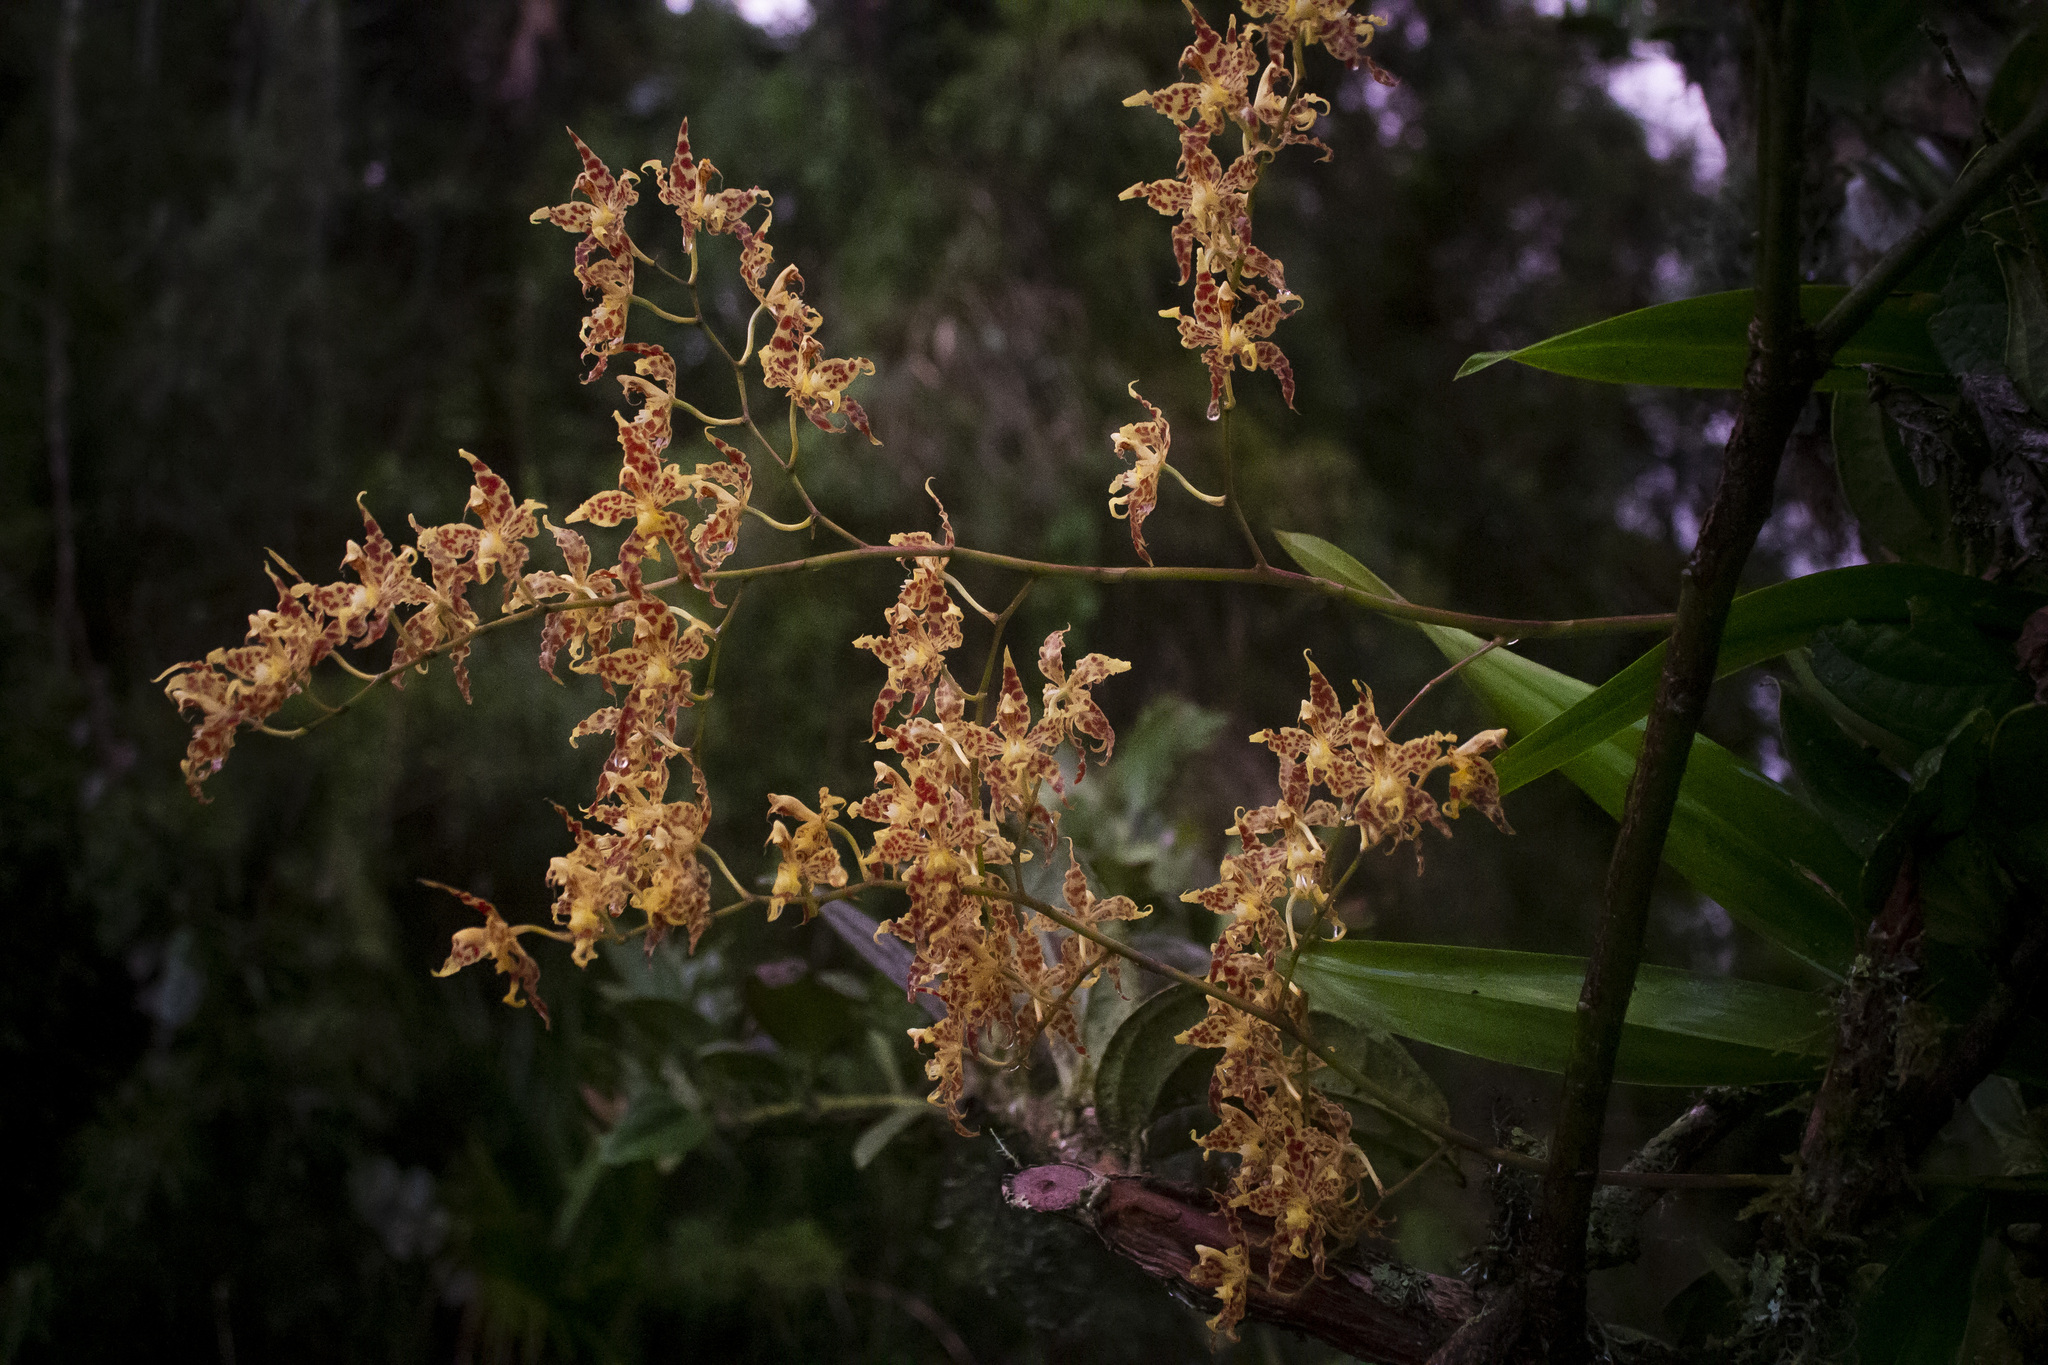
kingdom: Plantae
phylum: Tracheophyta
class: Liliopsida
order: Asparagales
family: Orchidaceae
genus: Oncidium
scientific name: Oncidium crocidipterum
